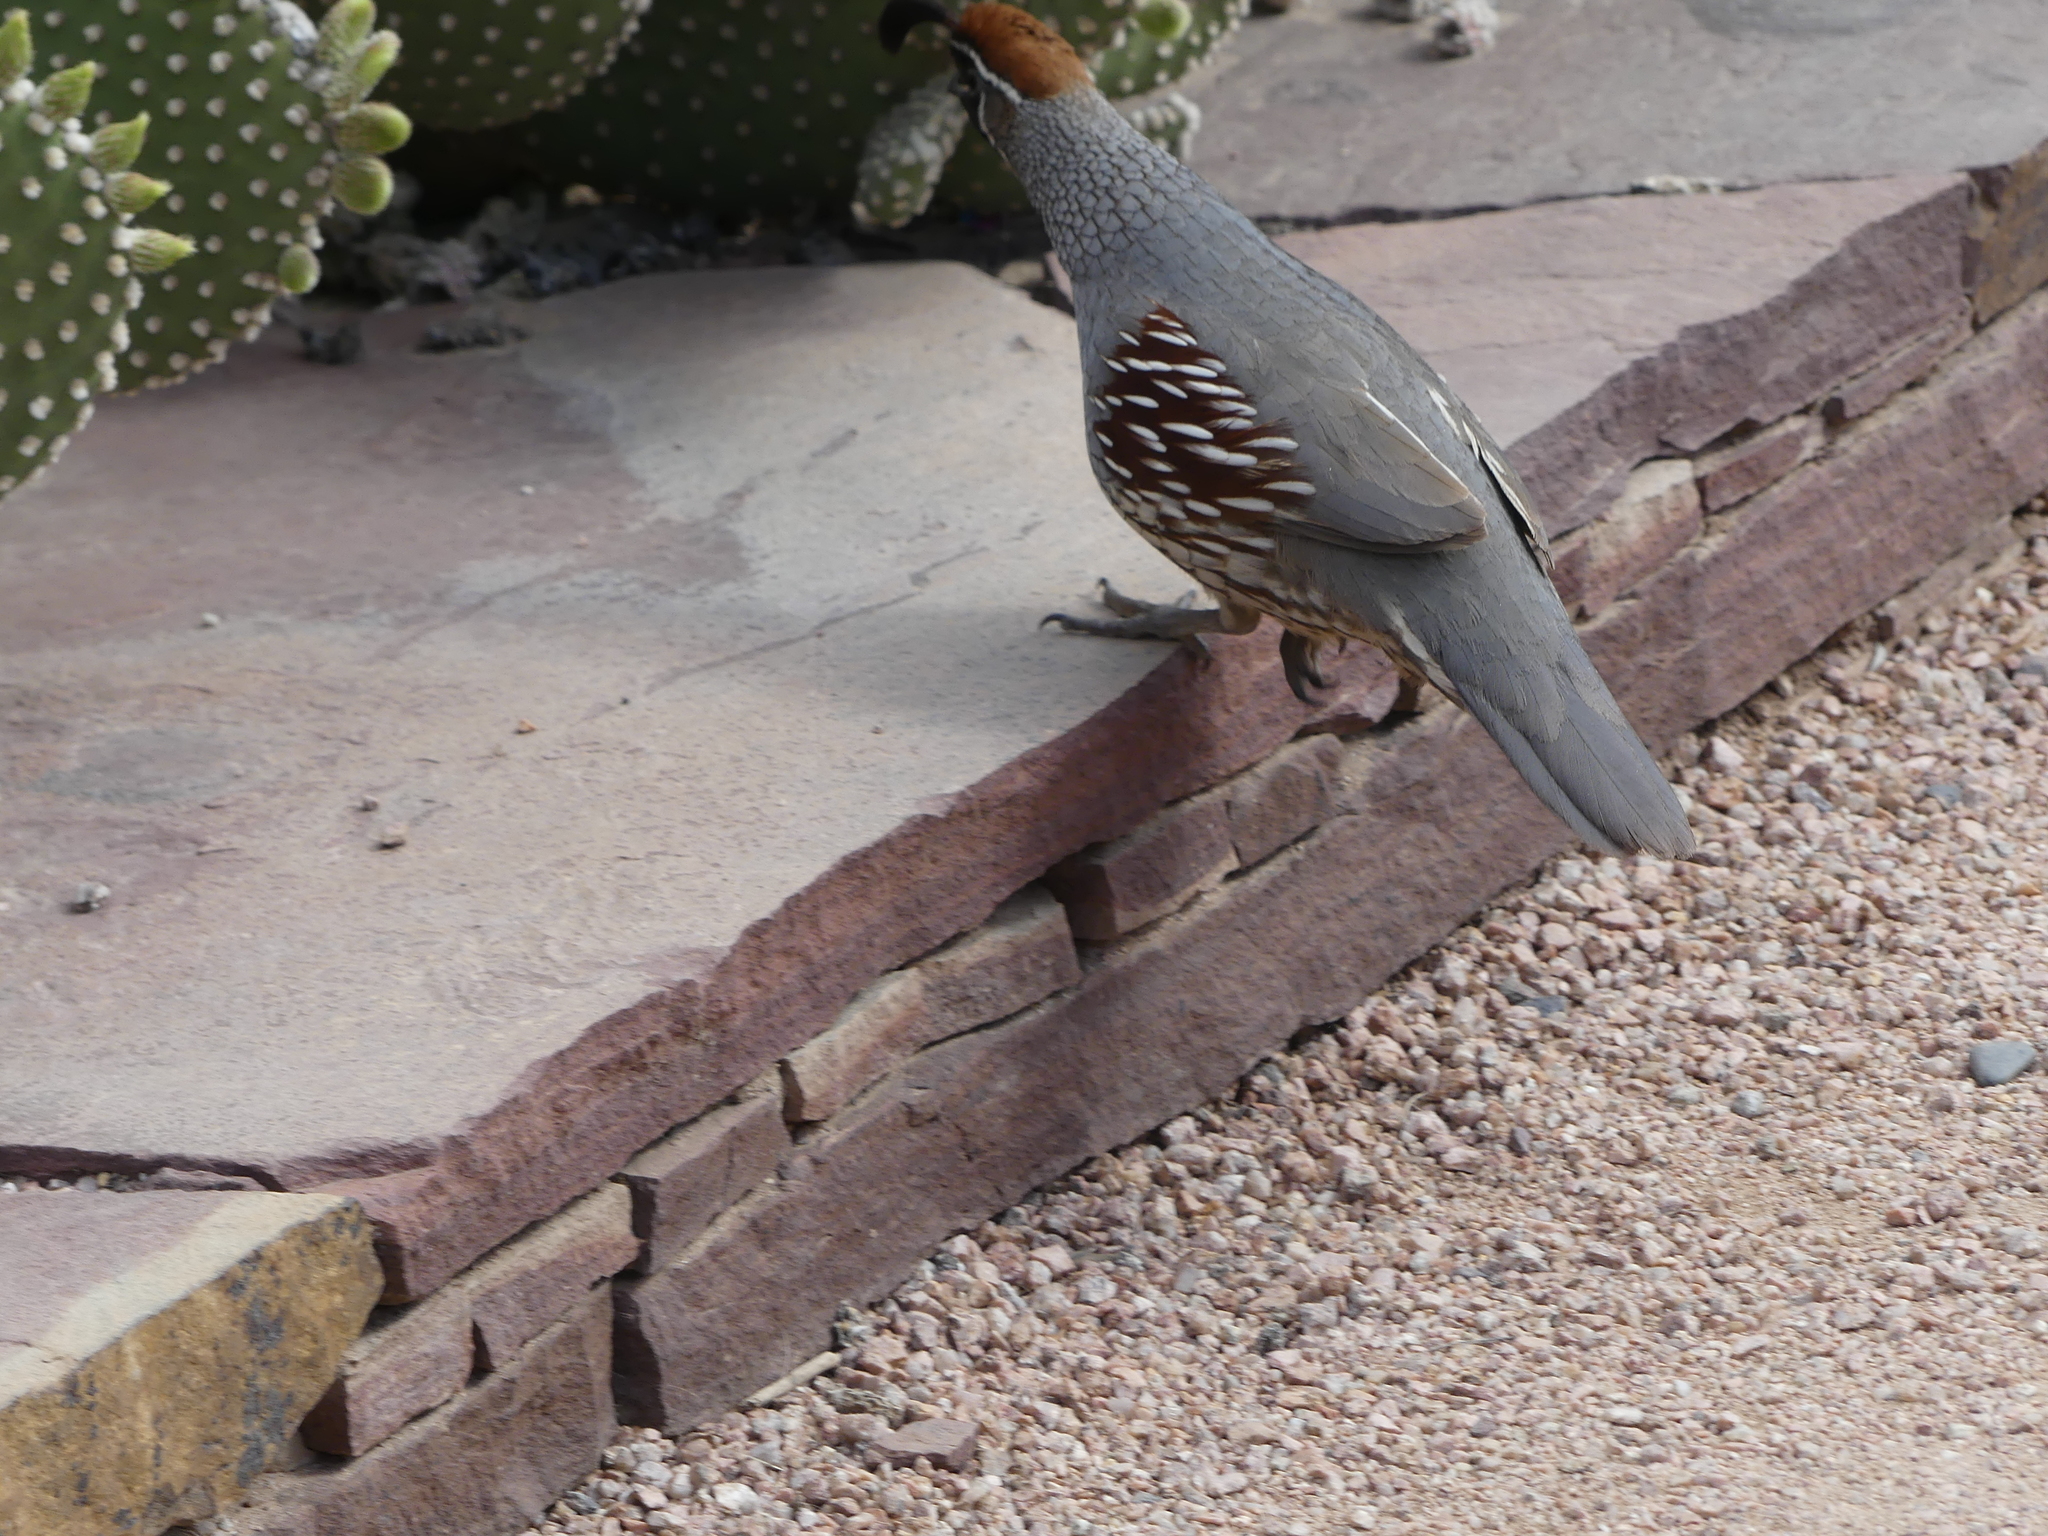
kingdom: Animalia
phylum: Chordata
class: Aves
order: Galliformes
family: Odontophoridae
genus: Callipepla
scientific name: Callipepla gambelii
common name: Gambel's quail
